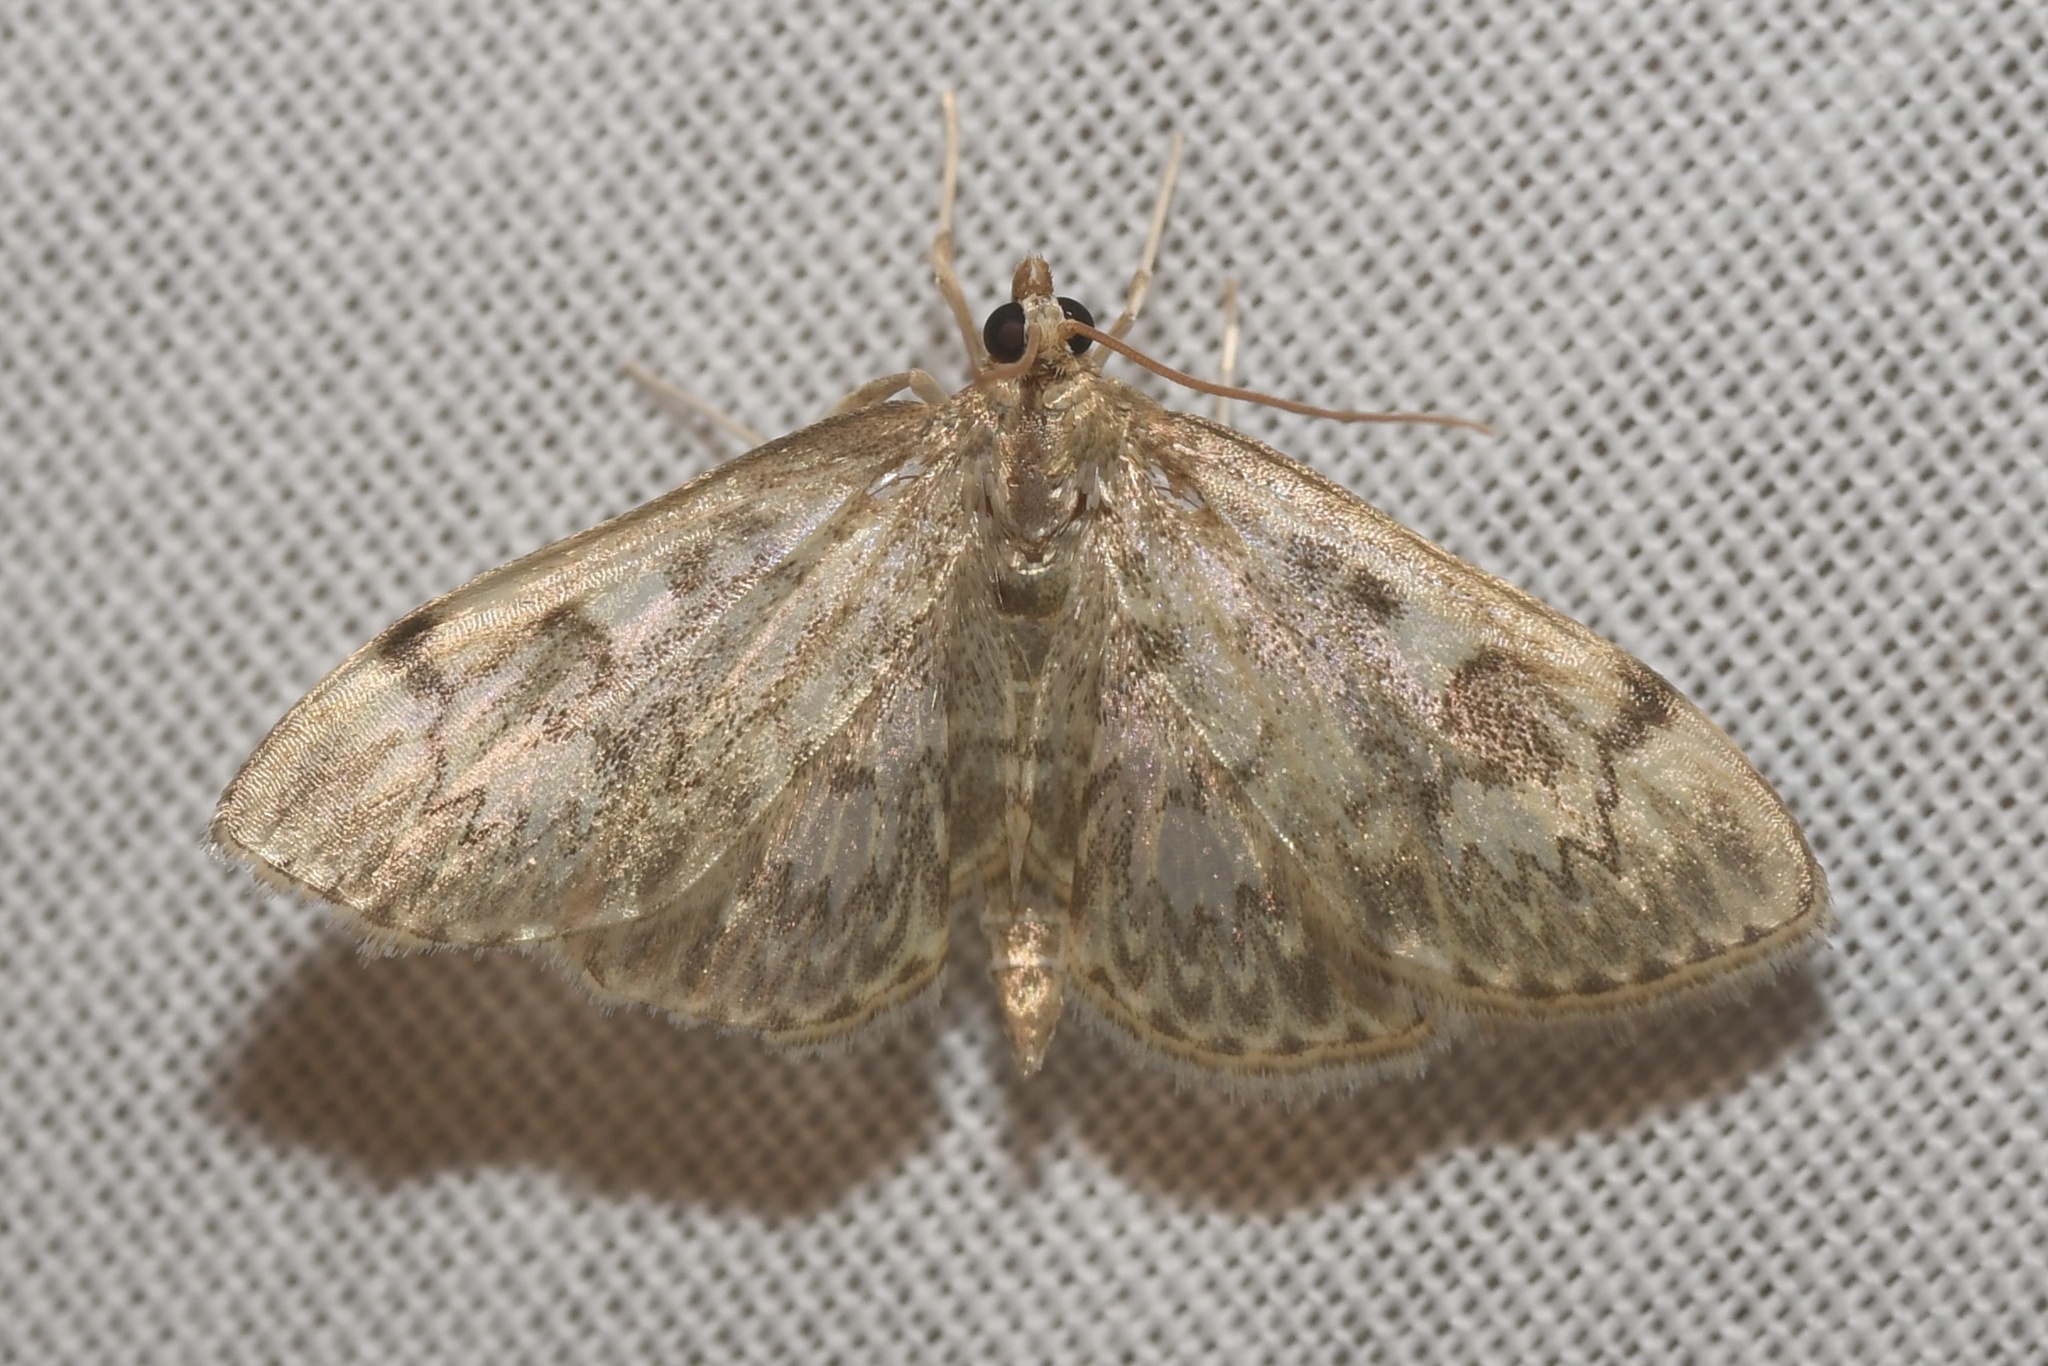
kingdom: Animalia
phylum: Arthropoda
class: Insecta
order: Lepidoptera
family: Crambidae
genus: Anania
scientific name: Anania
